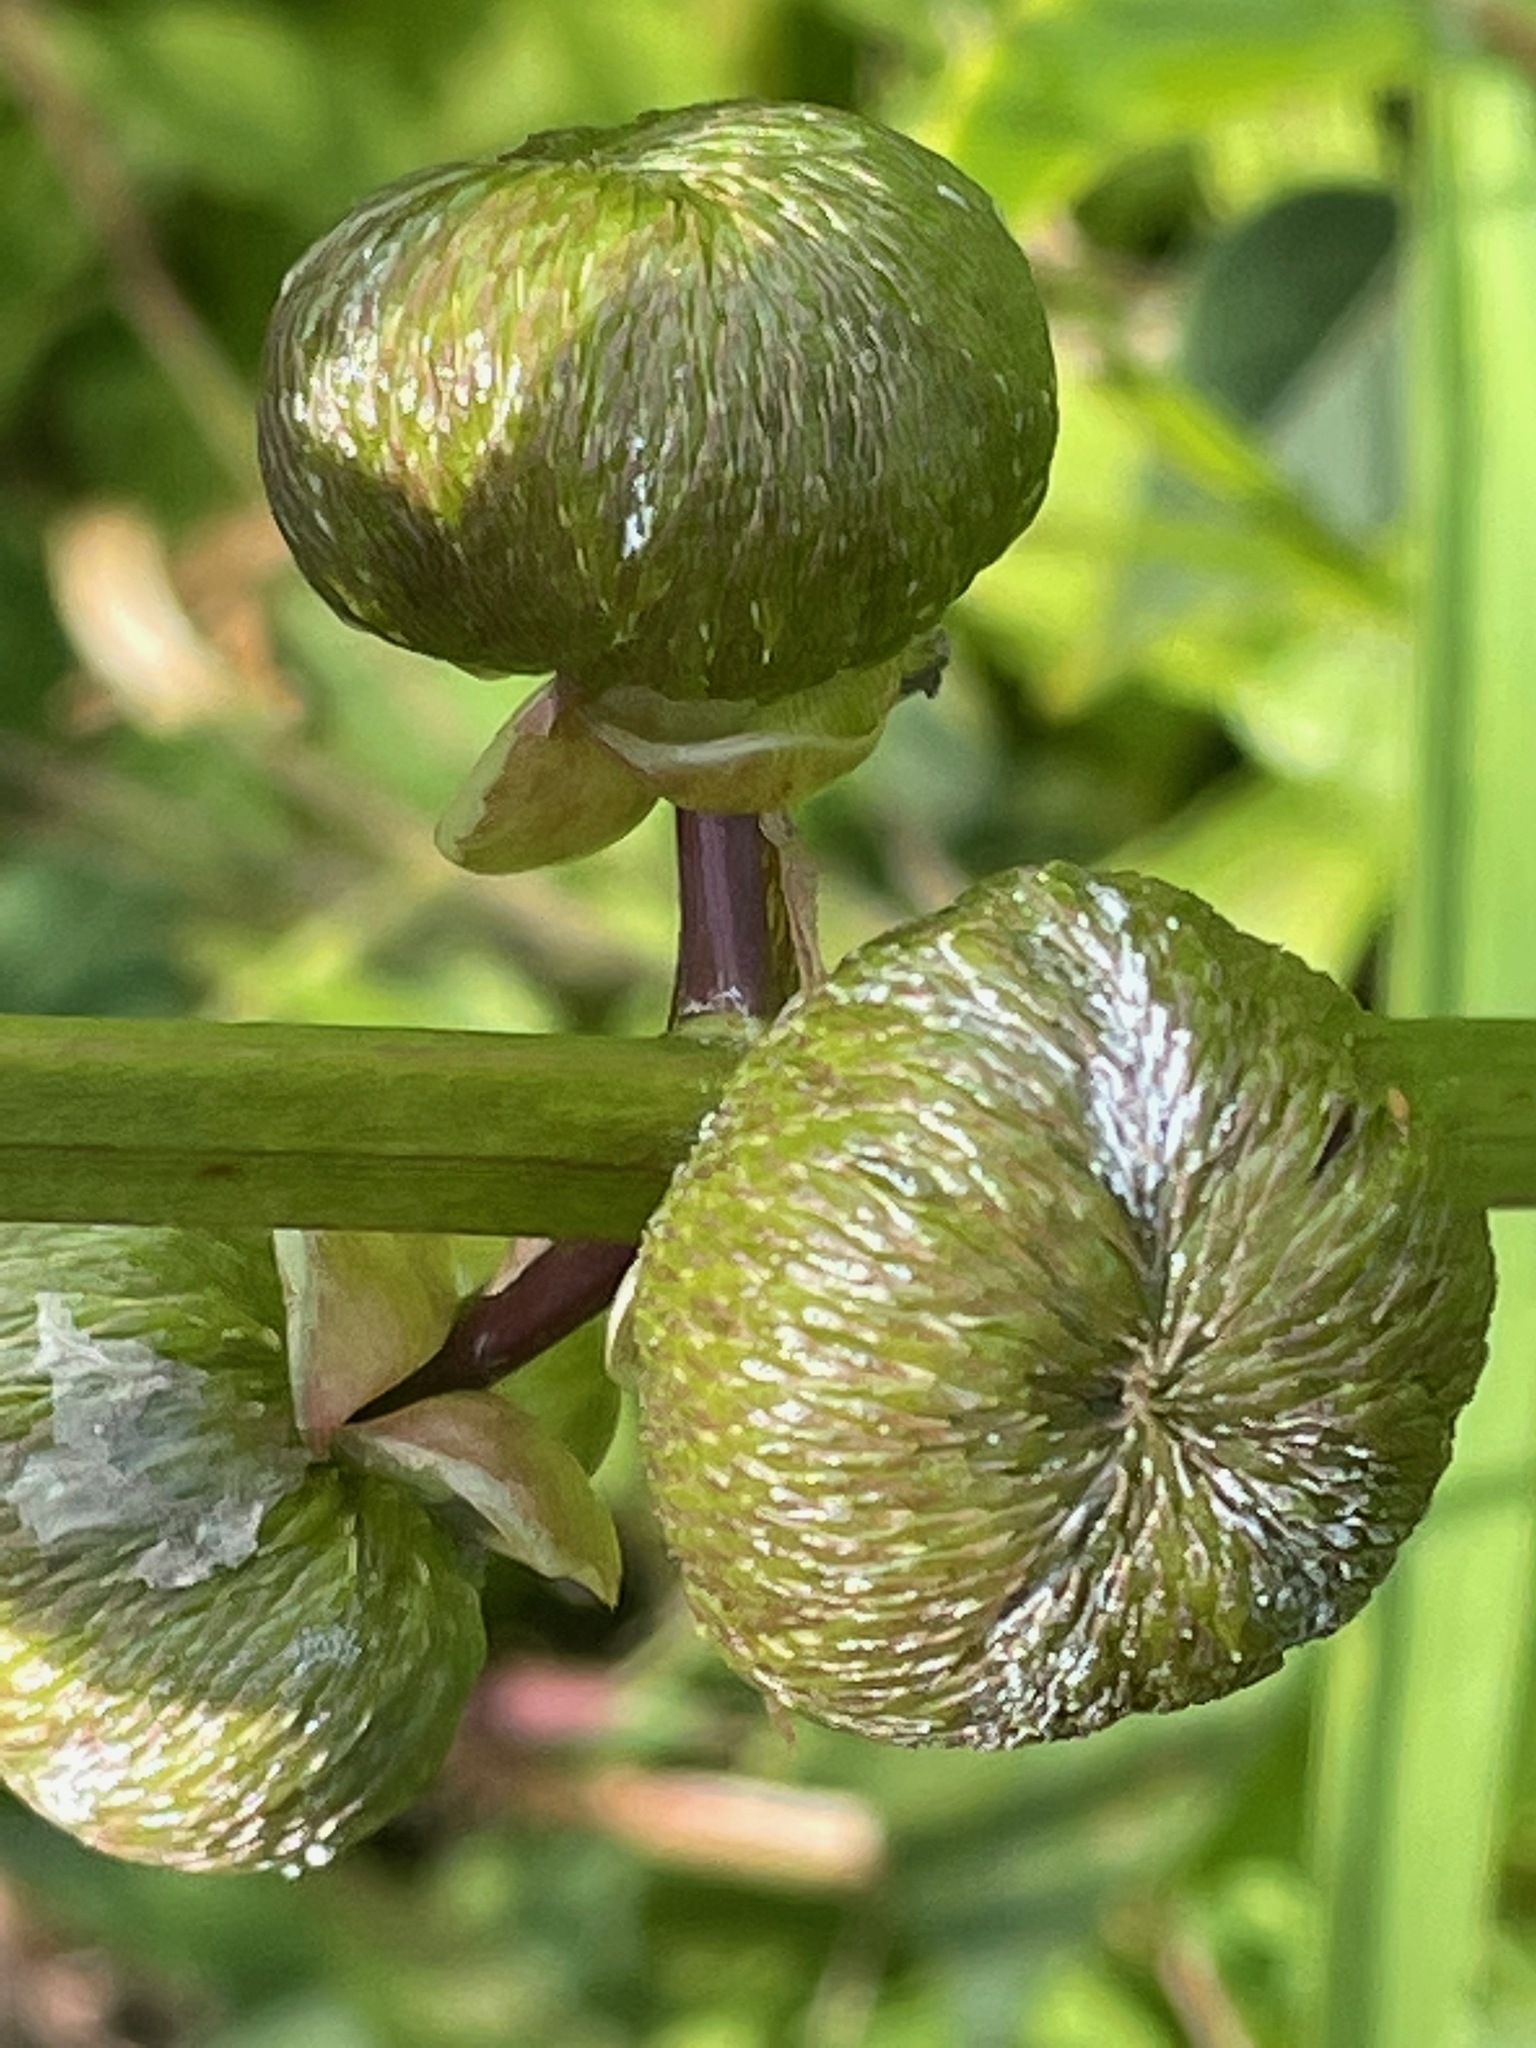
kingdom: Plantae
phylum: Tracheophyta
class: Liliopsida
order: Alismatales
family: Alismataceae
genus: Sagittaria
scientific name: Sagittaria latifolia
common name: Duck-potato
